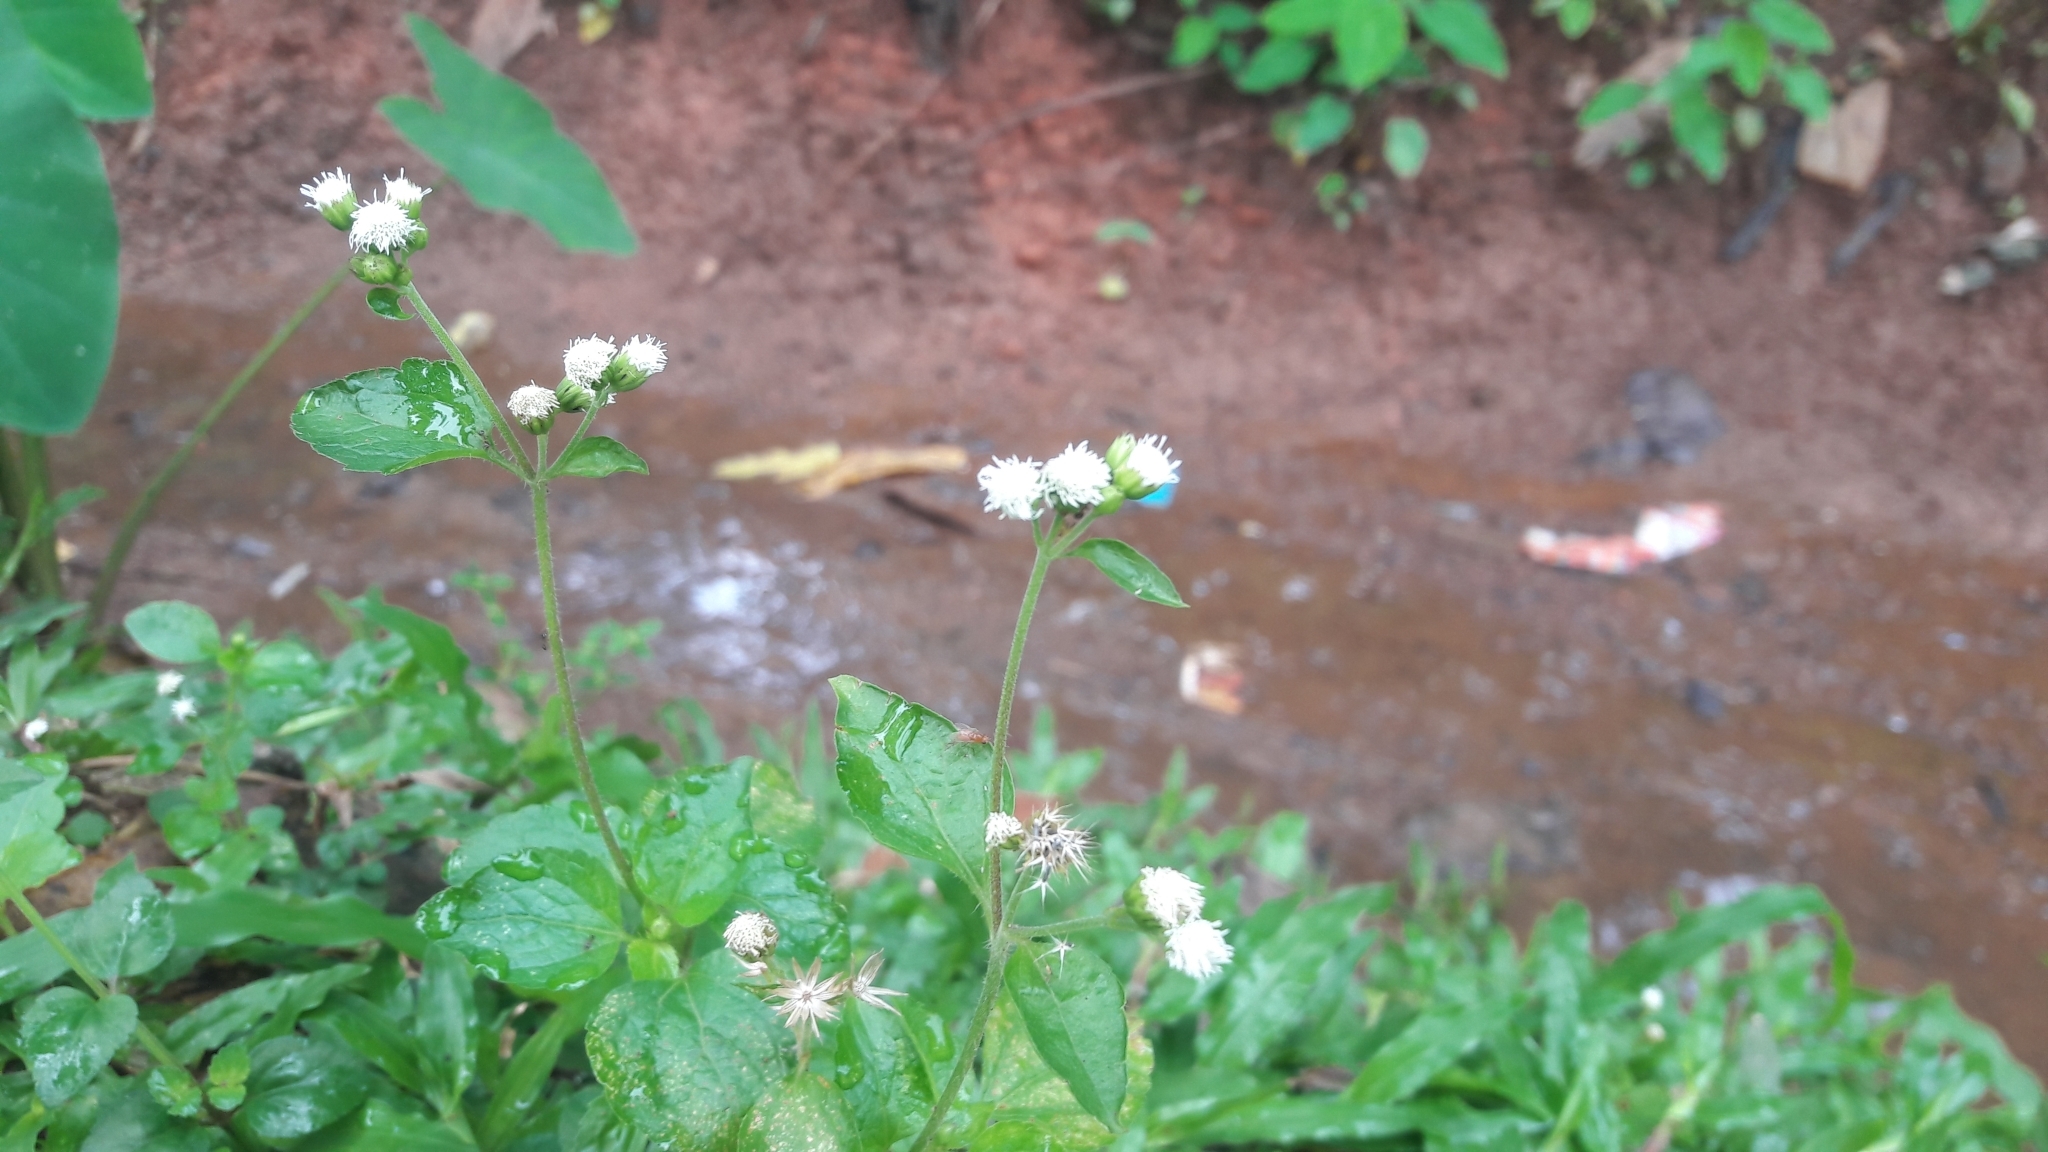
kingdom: Plantae
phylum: Tracheophyta
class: Magnoliopsida
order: Asterales
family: Asteraceae
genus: Ageratum
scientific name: Ageratum conyzoides
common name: Tropical whiteweed
